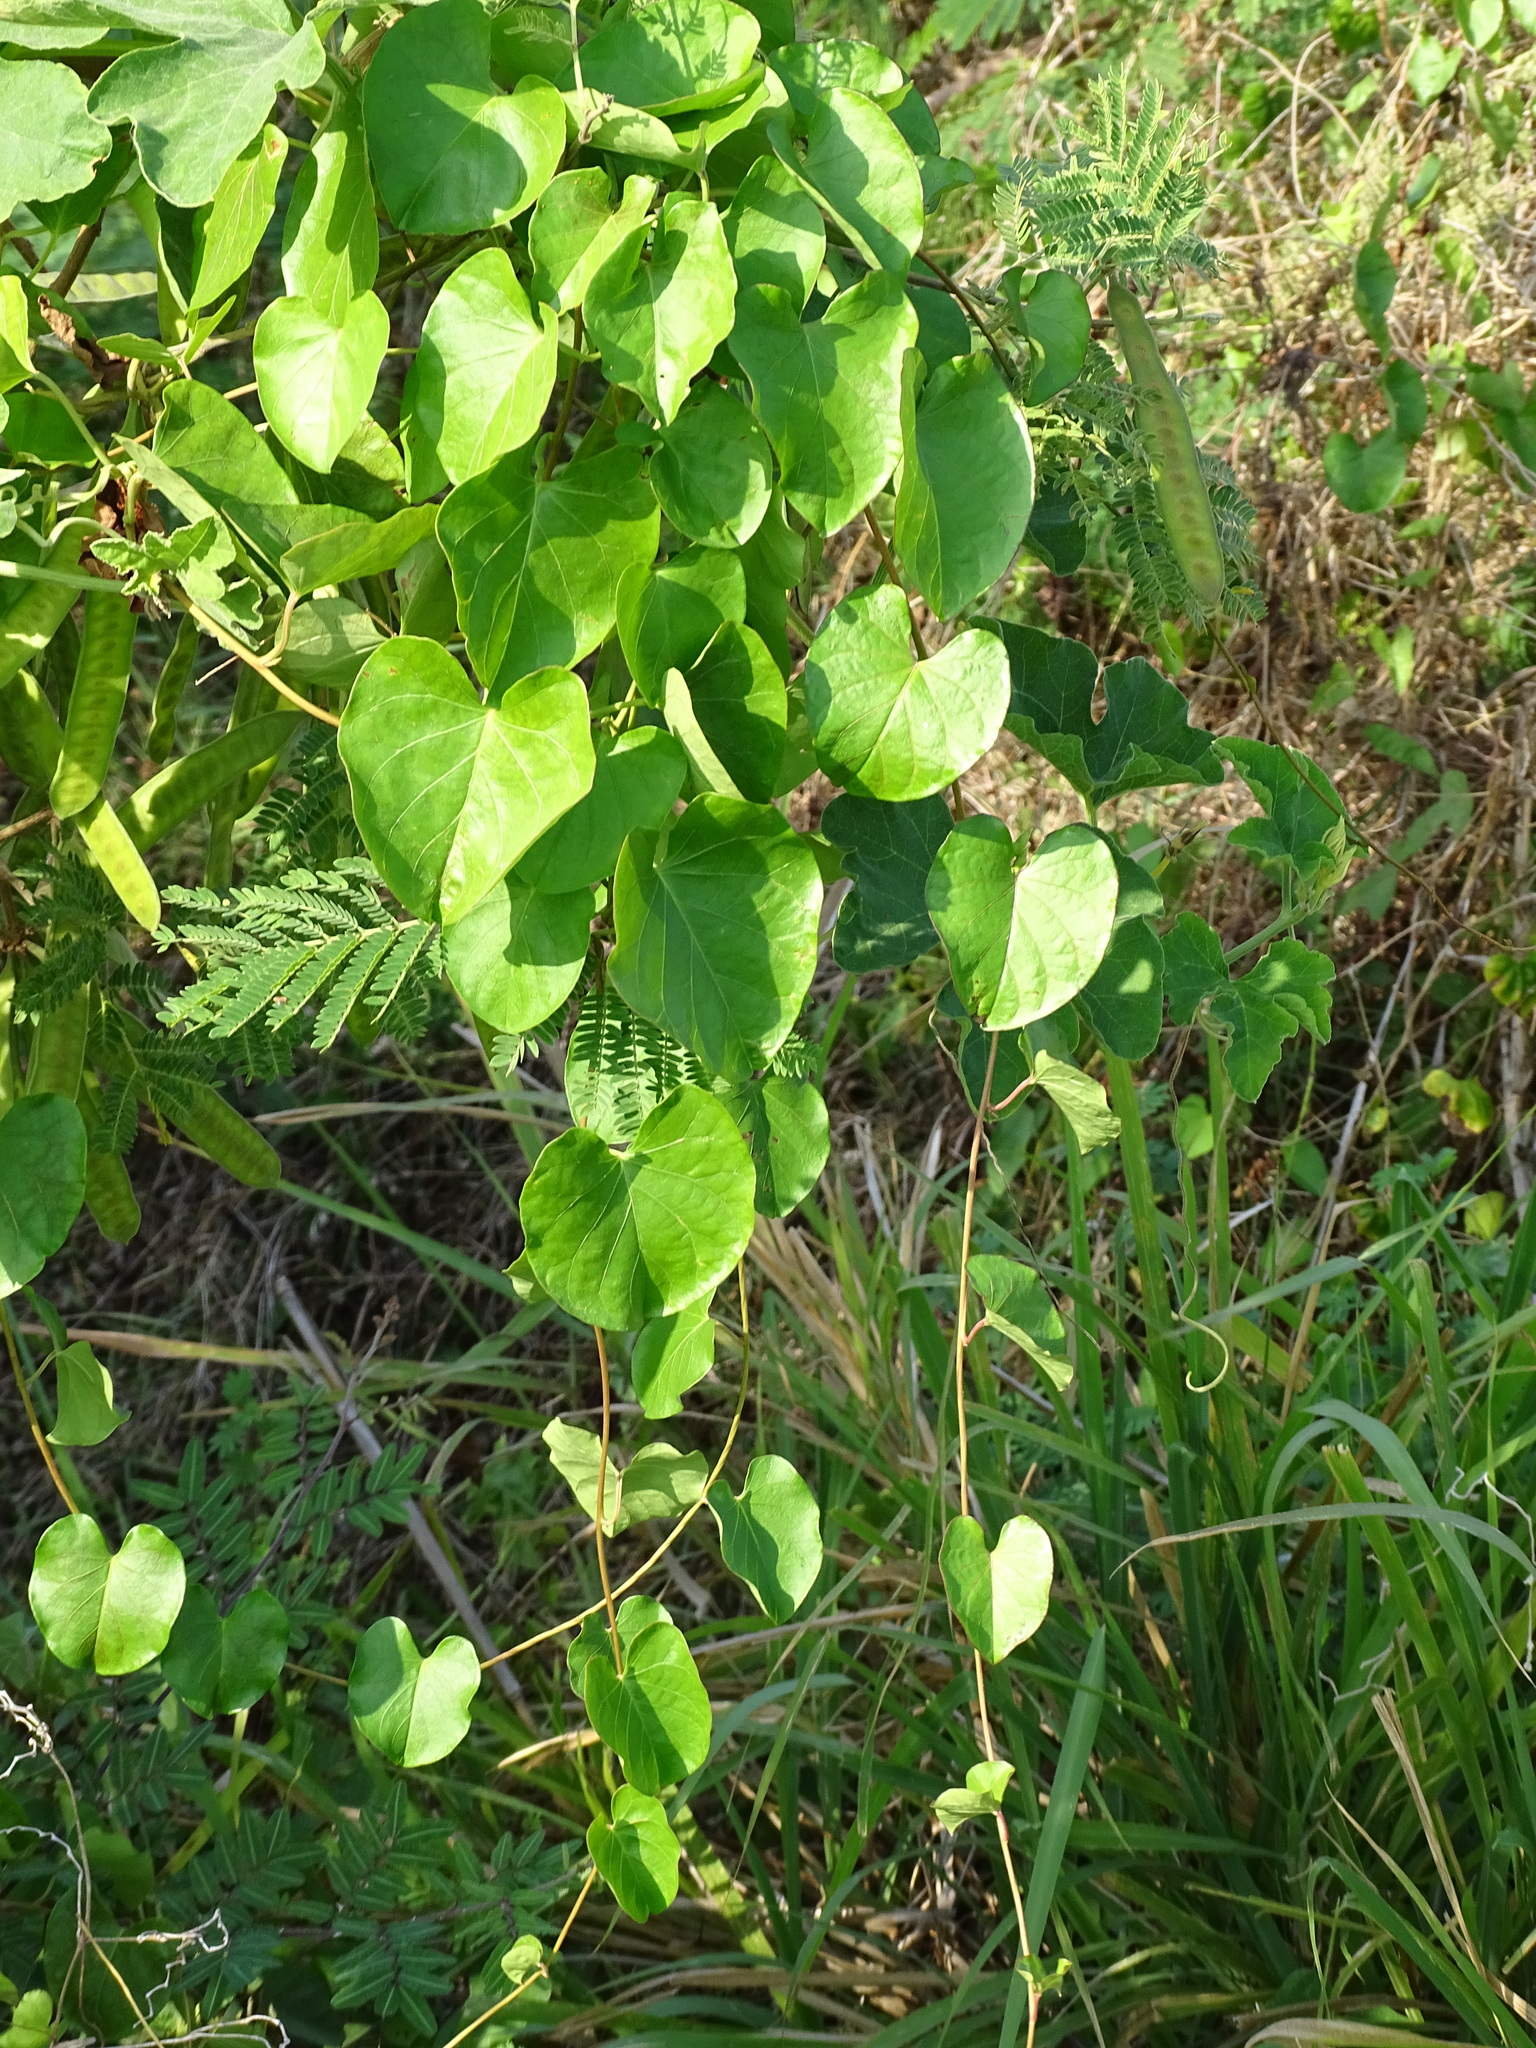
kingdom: Plantae
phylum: Tracheophyta
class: Magnoliopsida
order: Solanales
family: Convolvulaceae
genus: Ipomoea
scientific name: Ipomoea anisomeres
